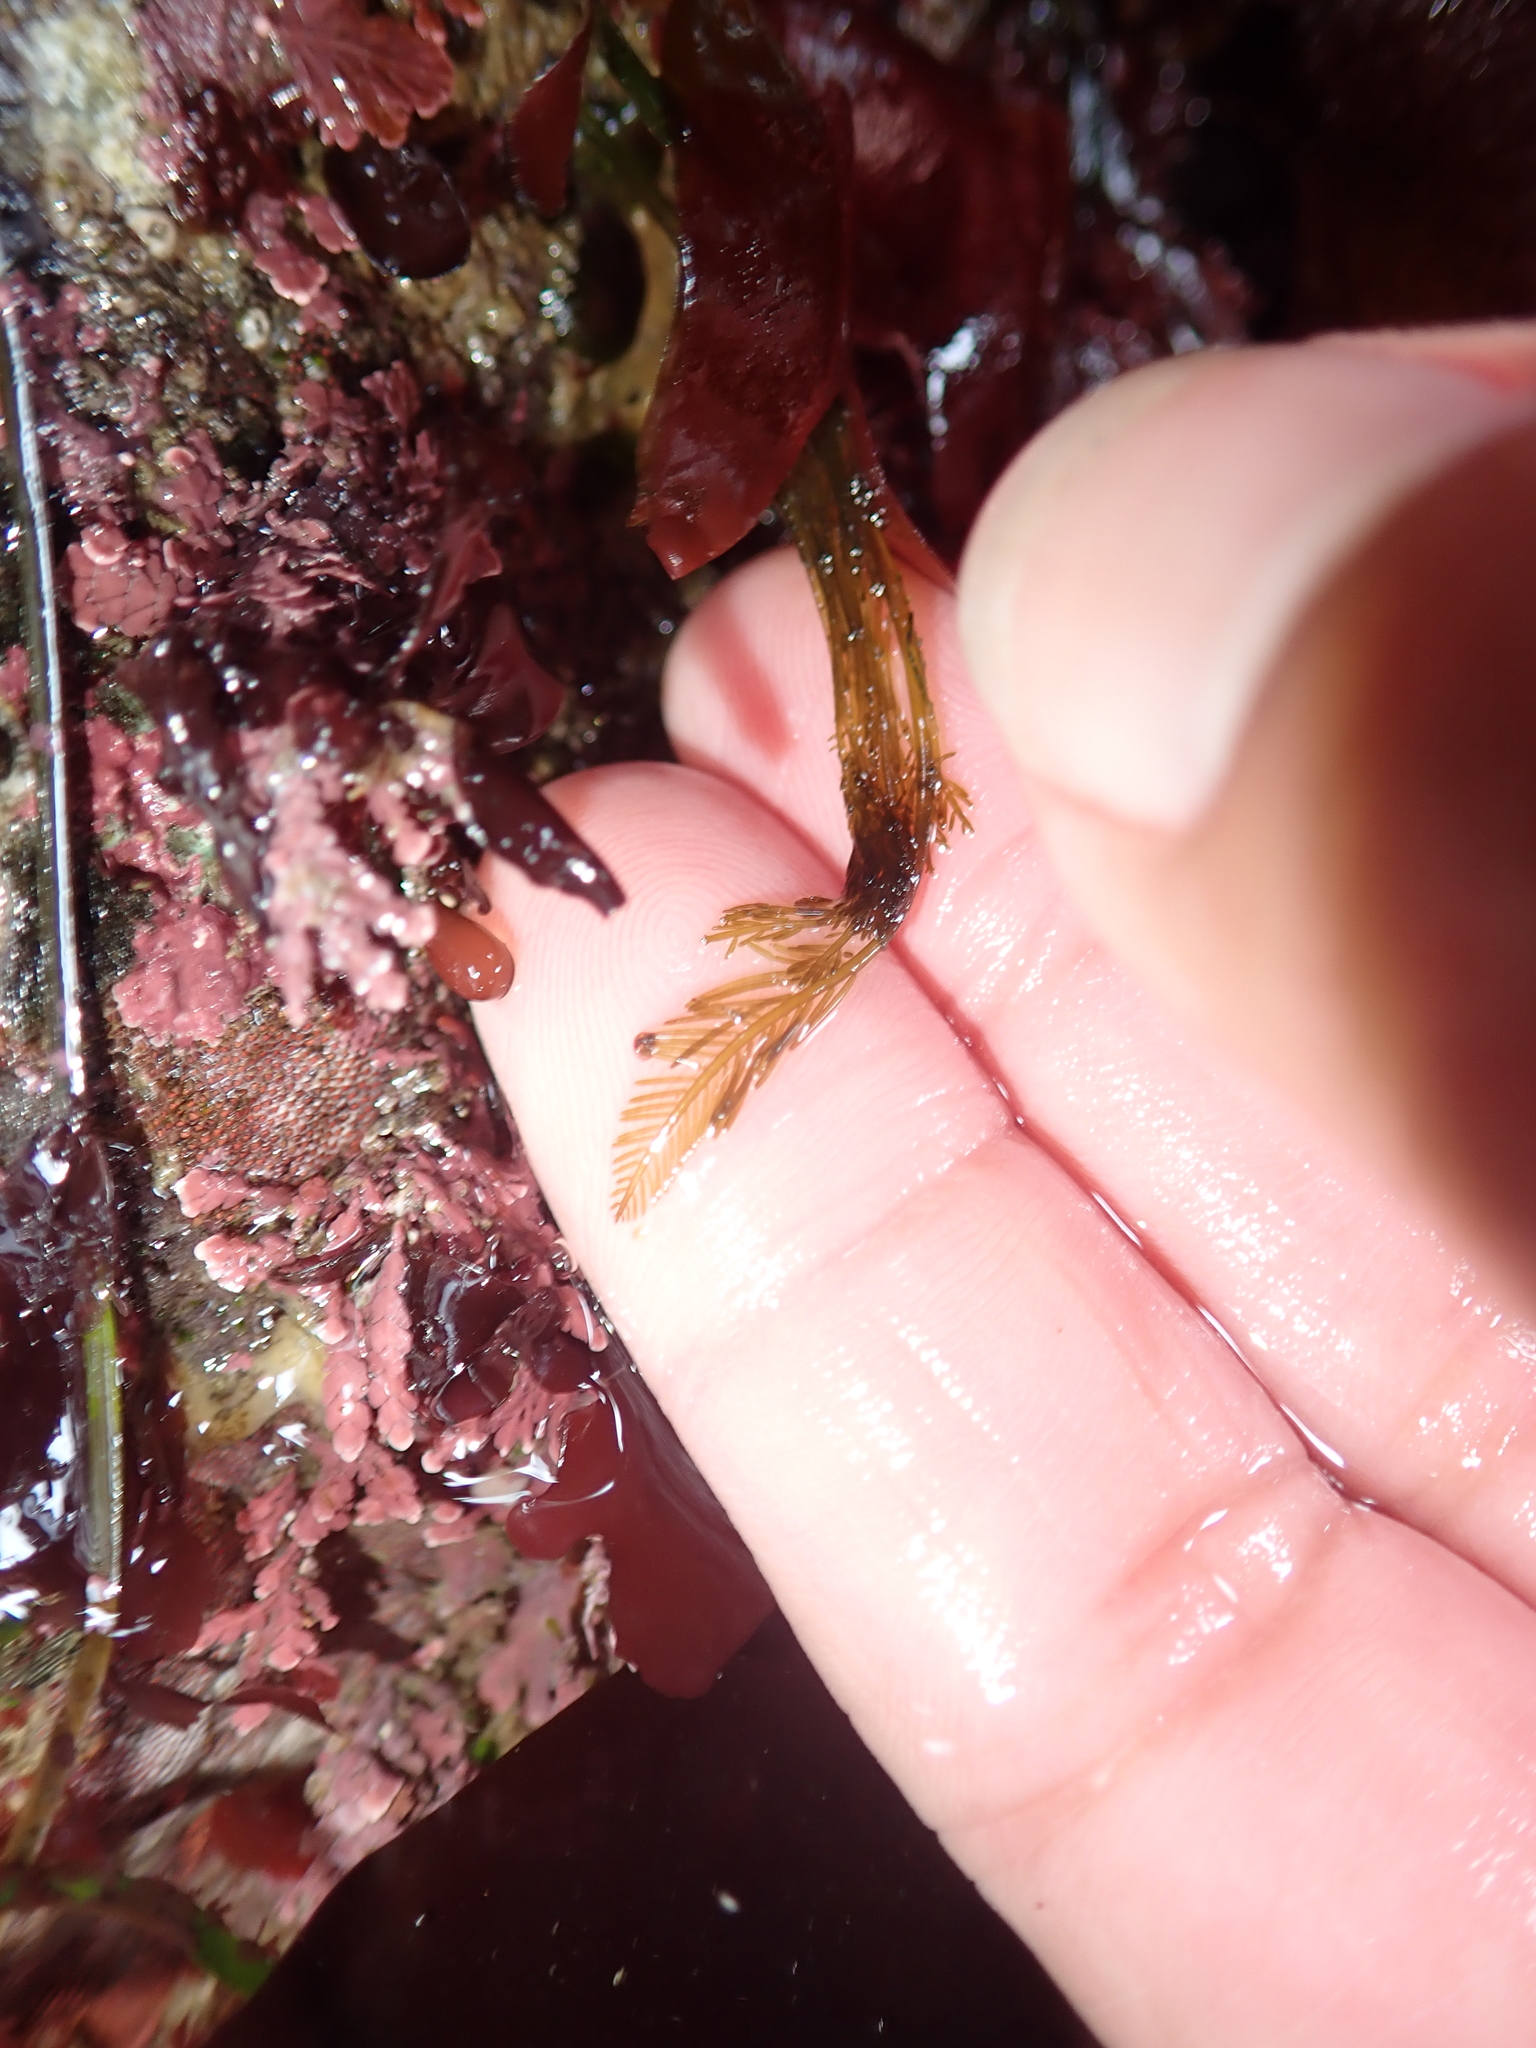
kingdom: Plantae
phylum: Chlorophyta
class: Ulvophyceae
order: Bryopsidales
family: Bryopsidaceae
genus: Bryopsis
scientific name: Bryopsis corticulans
